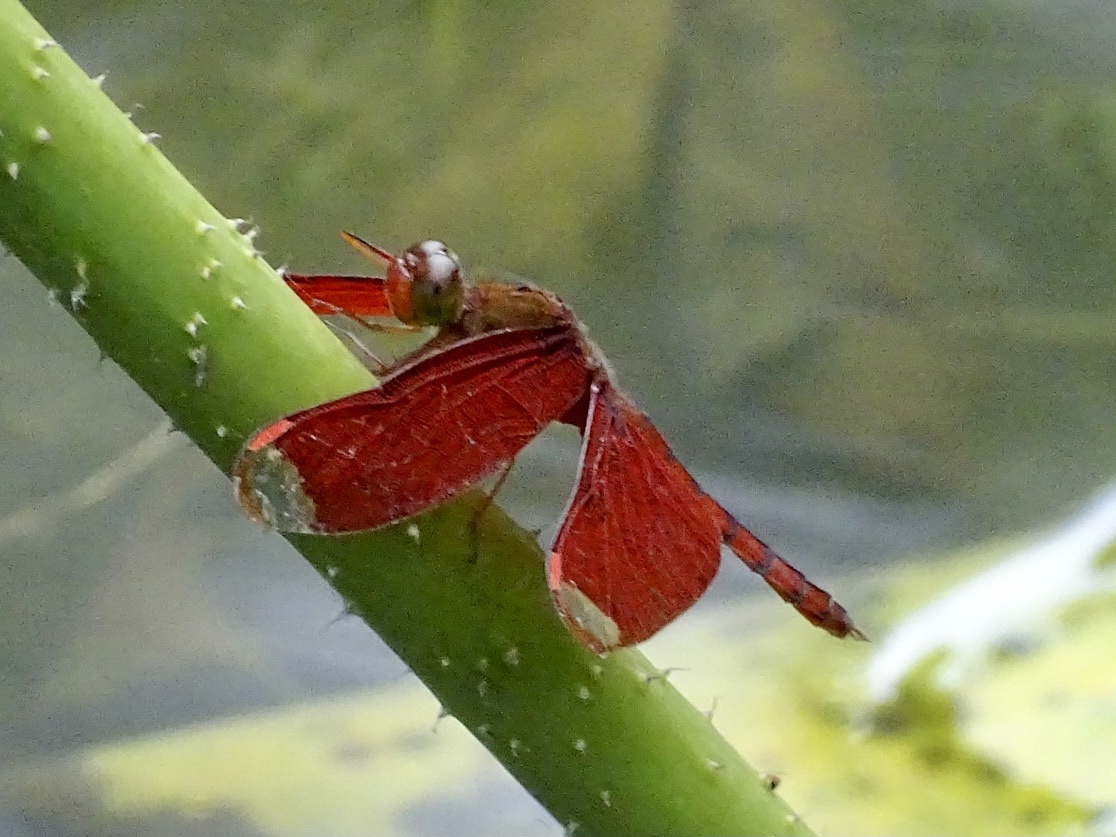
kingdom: Animalia
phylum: Arthropoda
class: Insecta
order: Odonata
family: Libellulidae
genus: Neurothemis
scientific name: Neurothemis fulvia
